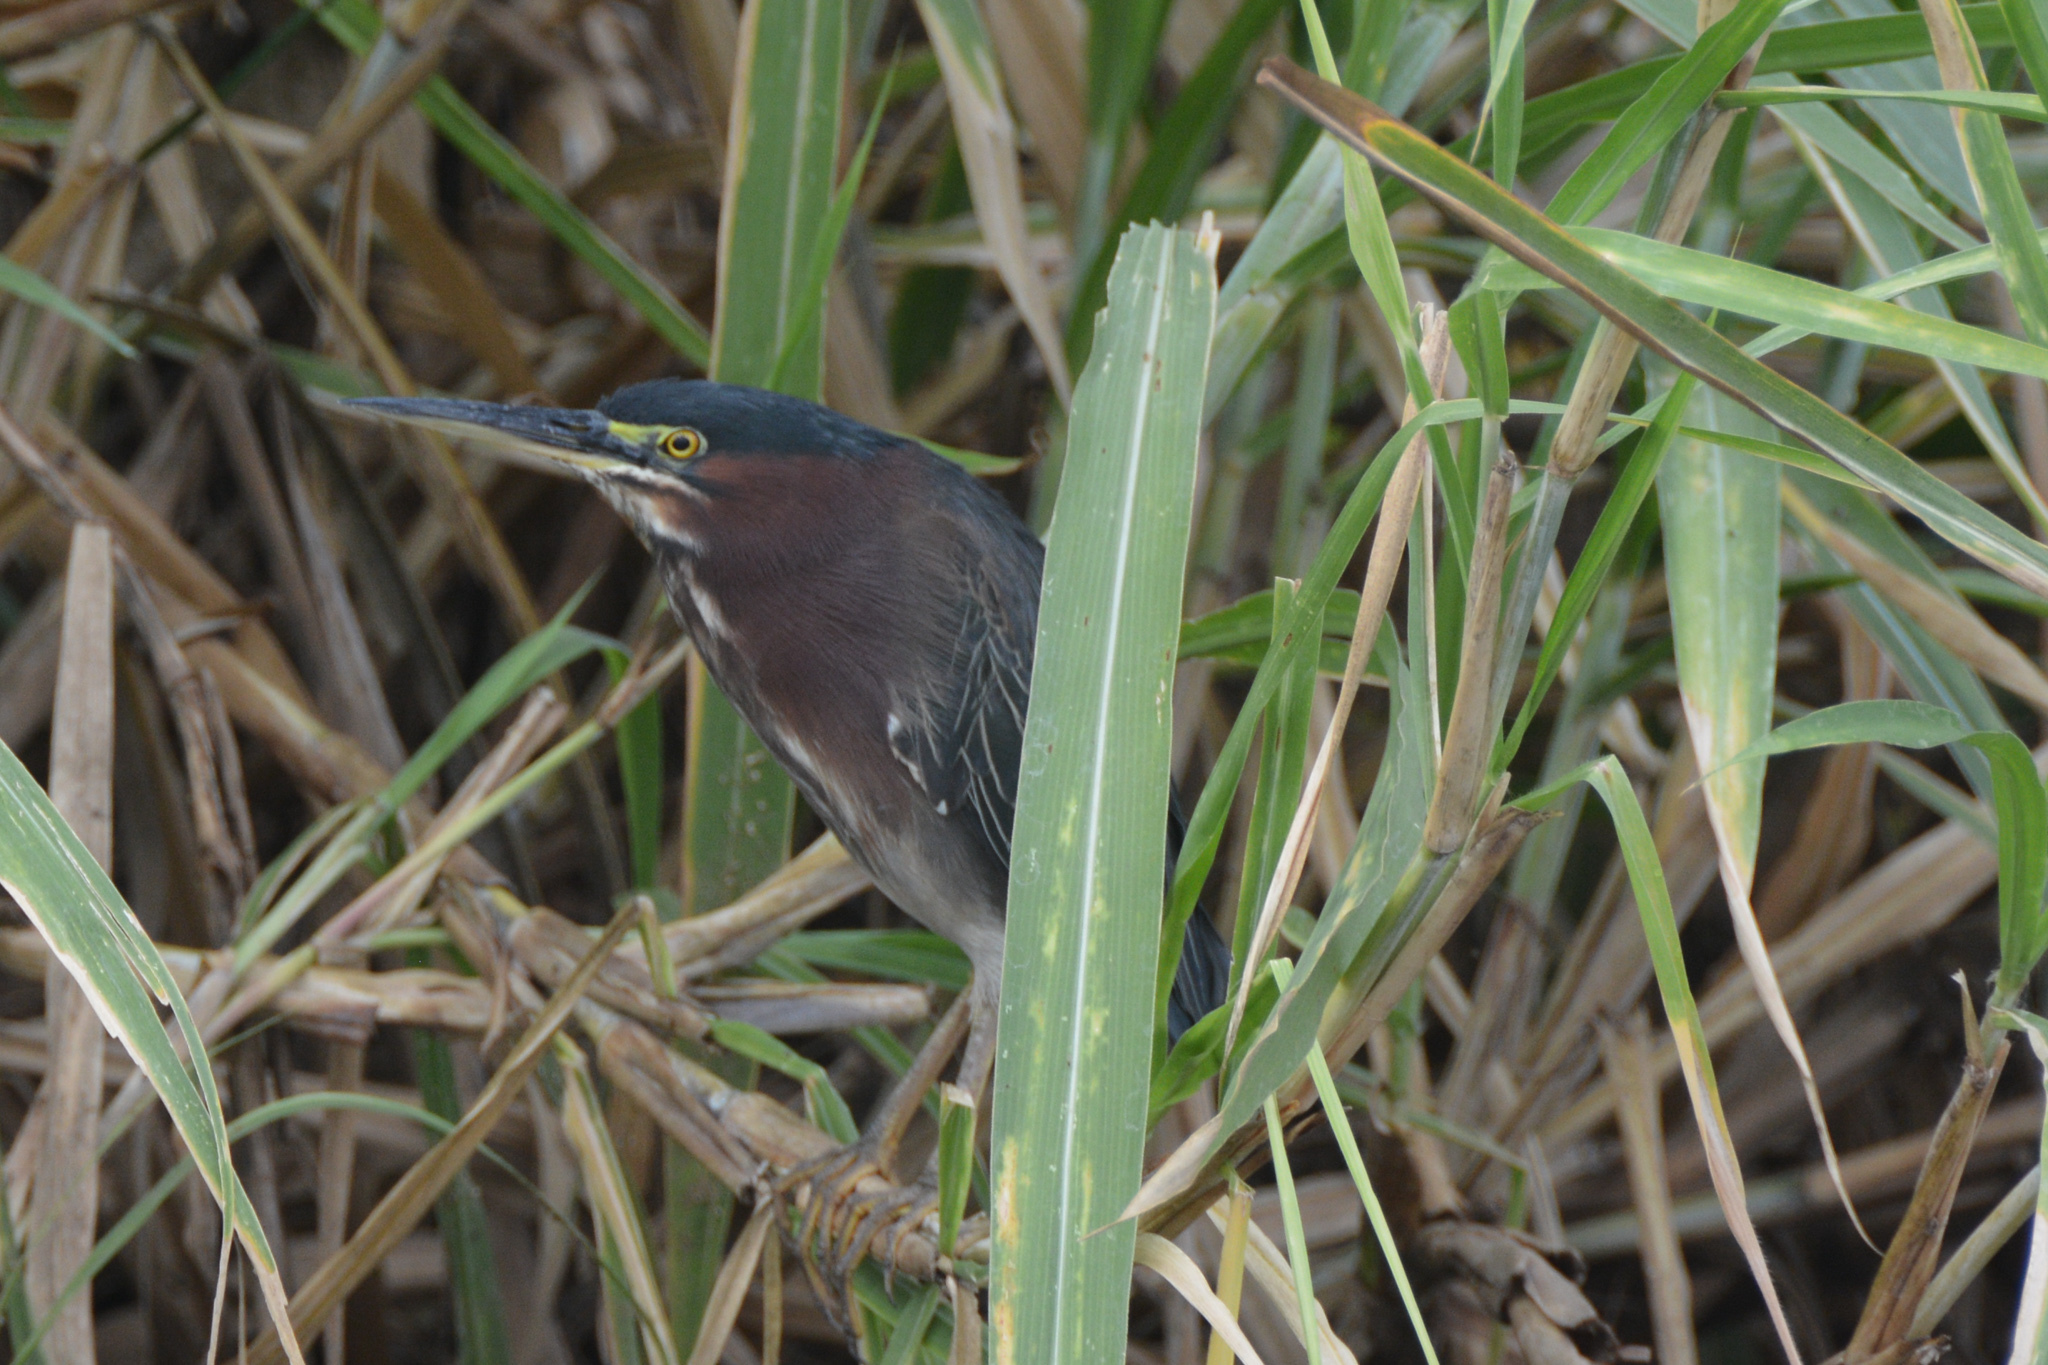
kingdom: Animalia
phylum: Chordata
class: Aves
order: Pelecaniformes
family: Ardeidae
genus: Butorides
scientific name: Butorides virescens
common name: Green heron
